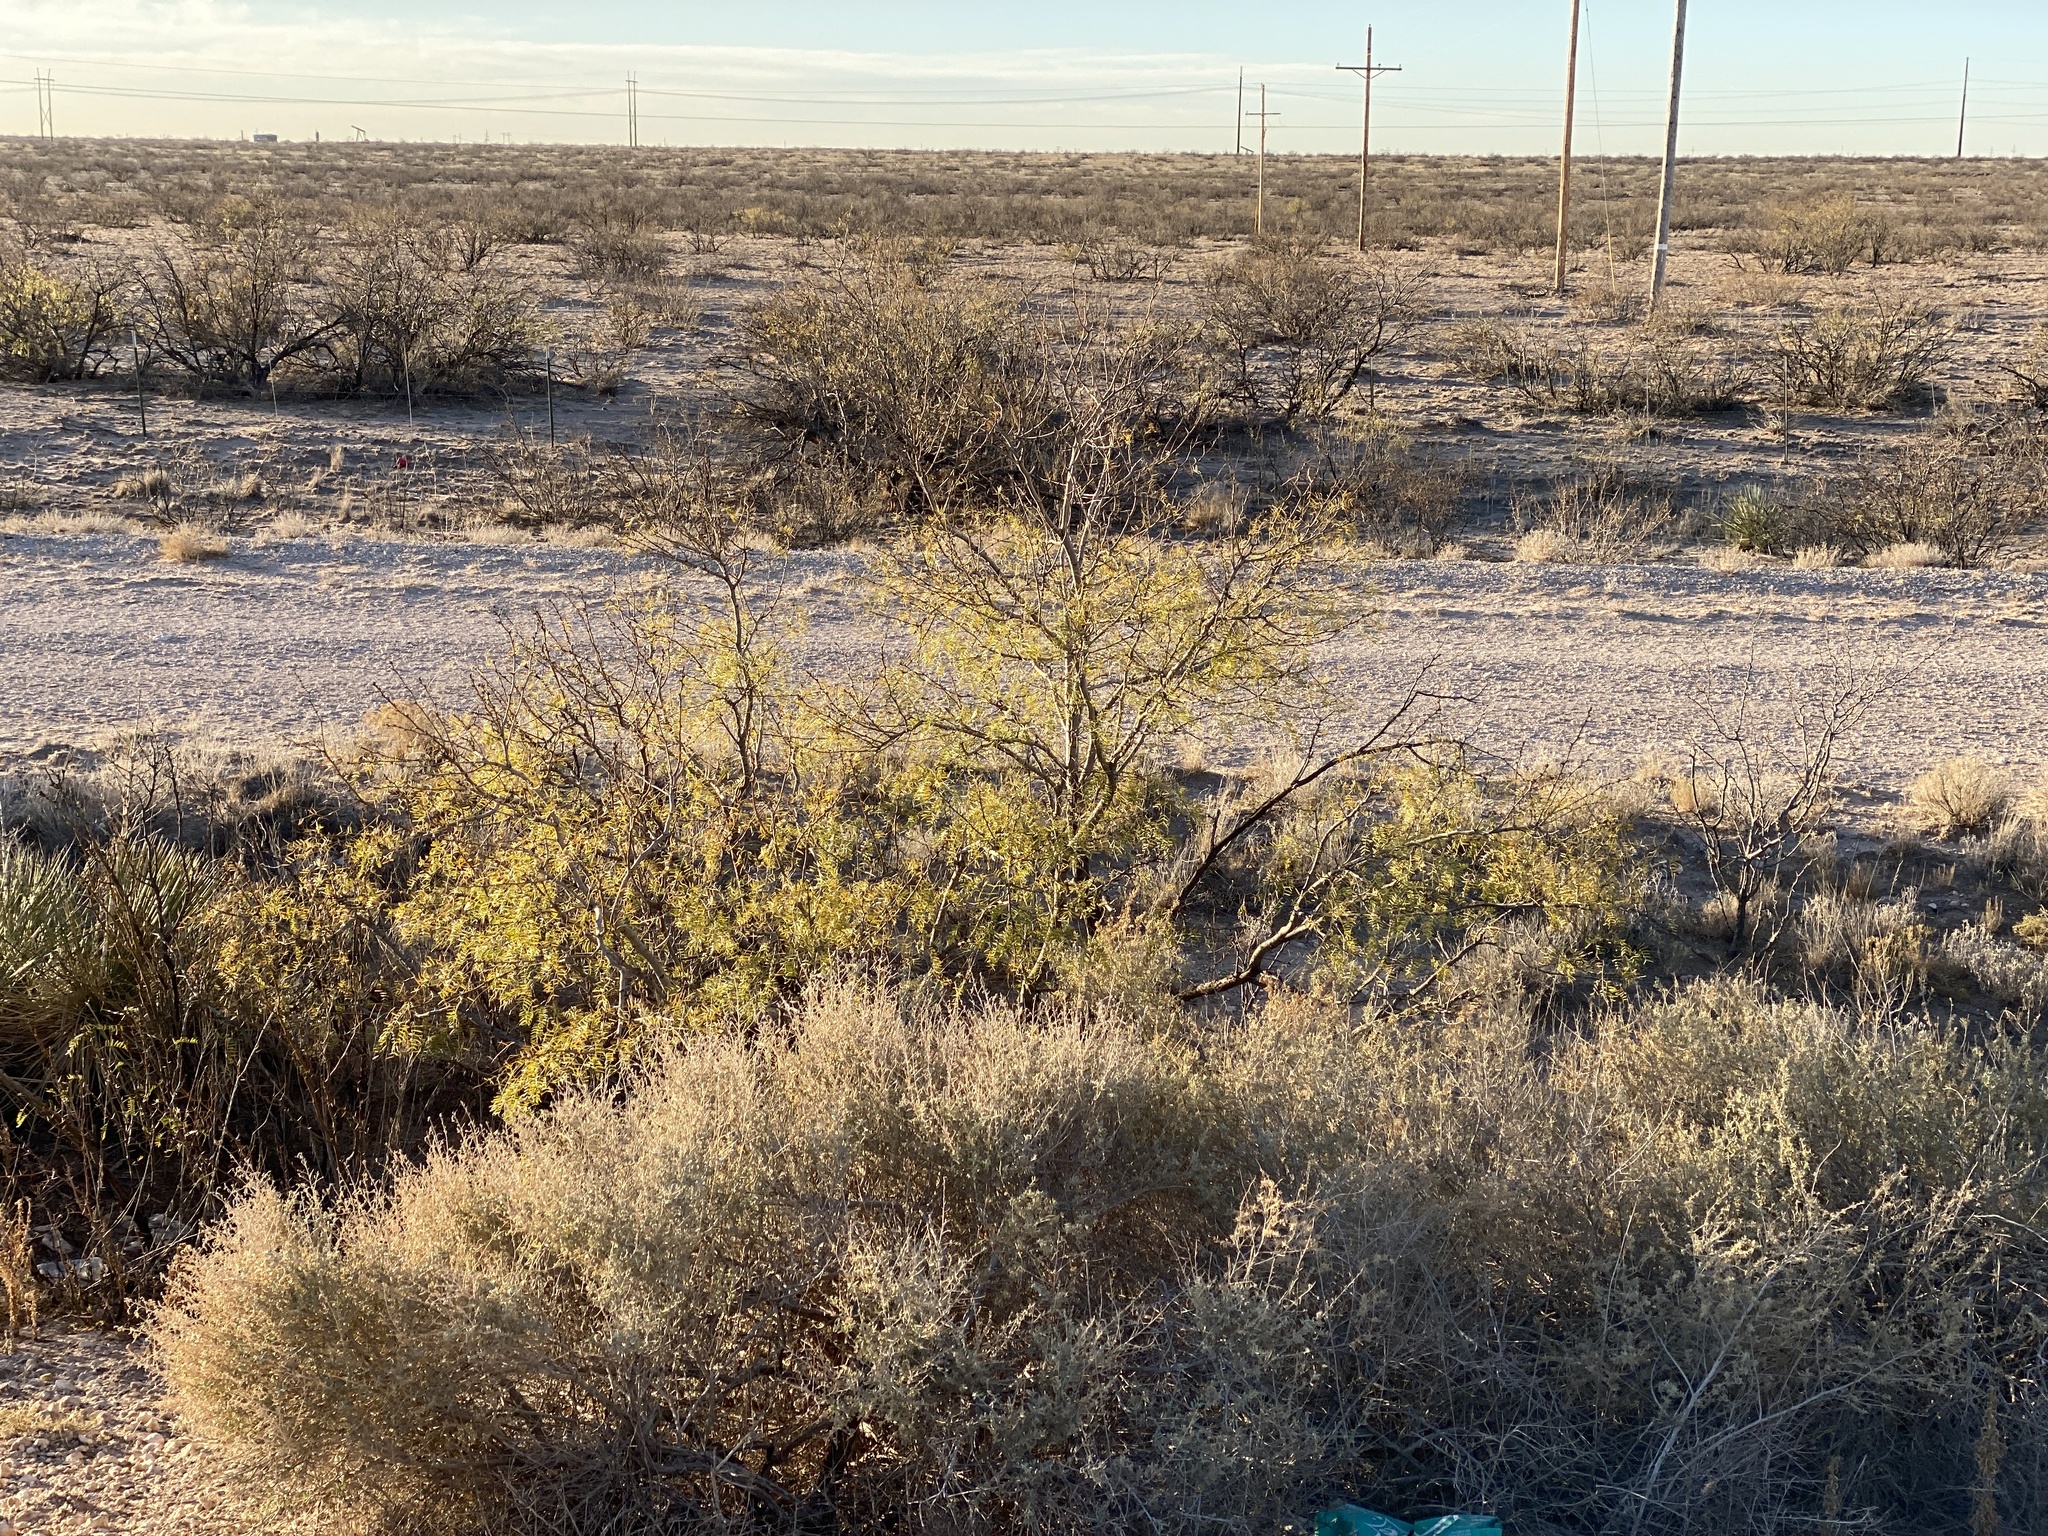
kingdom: Plantae
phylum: Tracheophyta
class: Magnoliopsida
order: Fabales
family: Fabaceae
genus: Prosopis
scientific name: Prosopis glandulosa
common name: Honey mesquite
